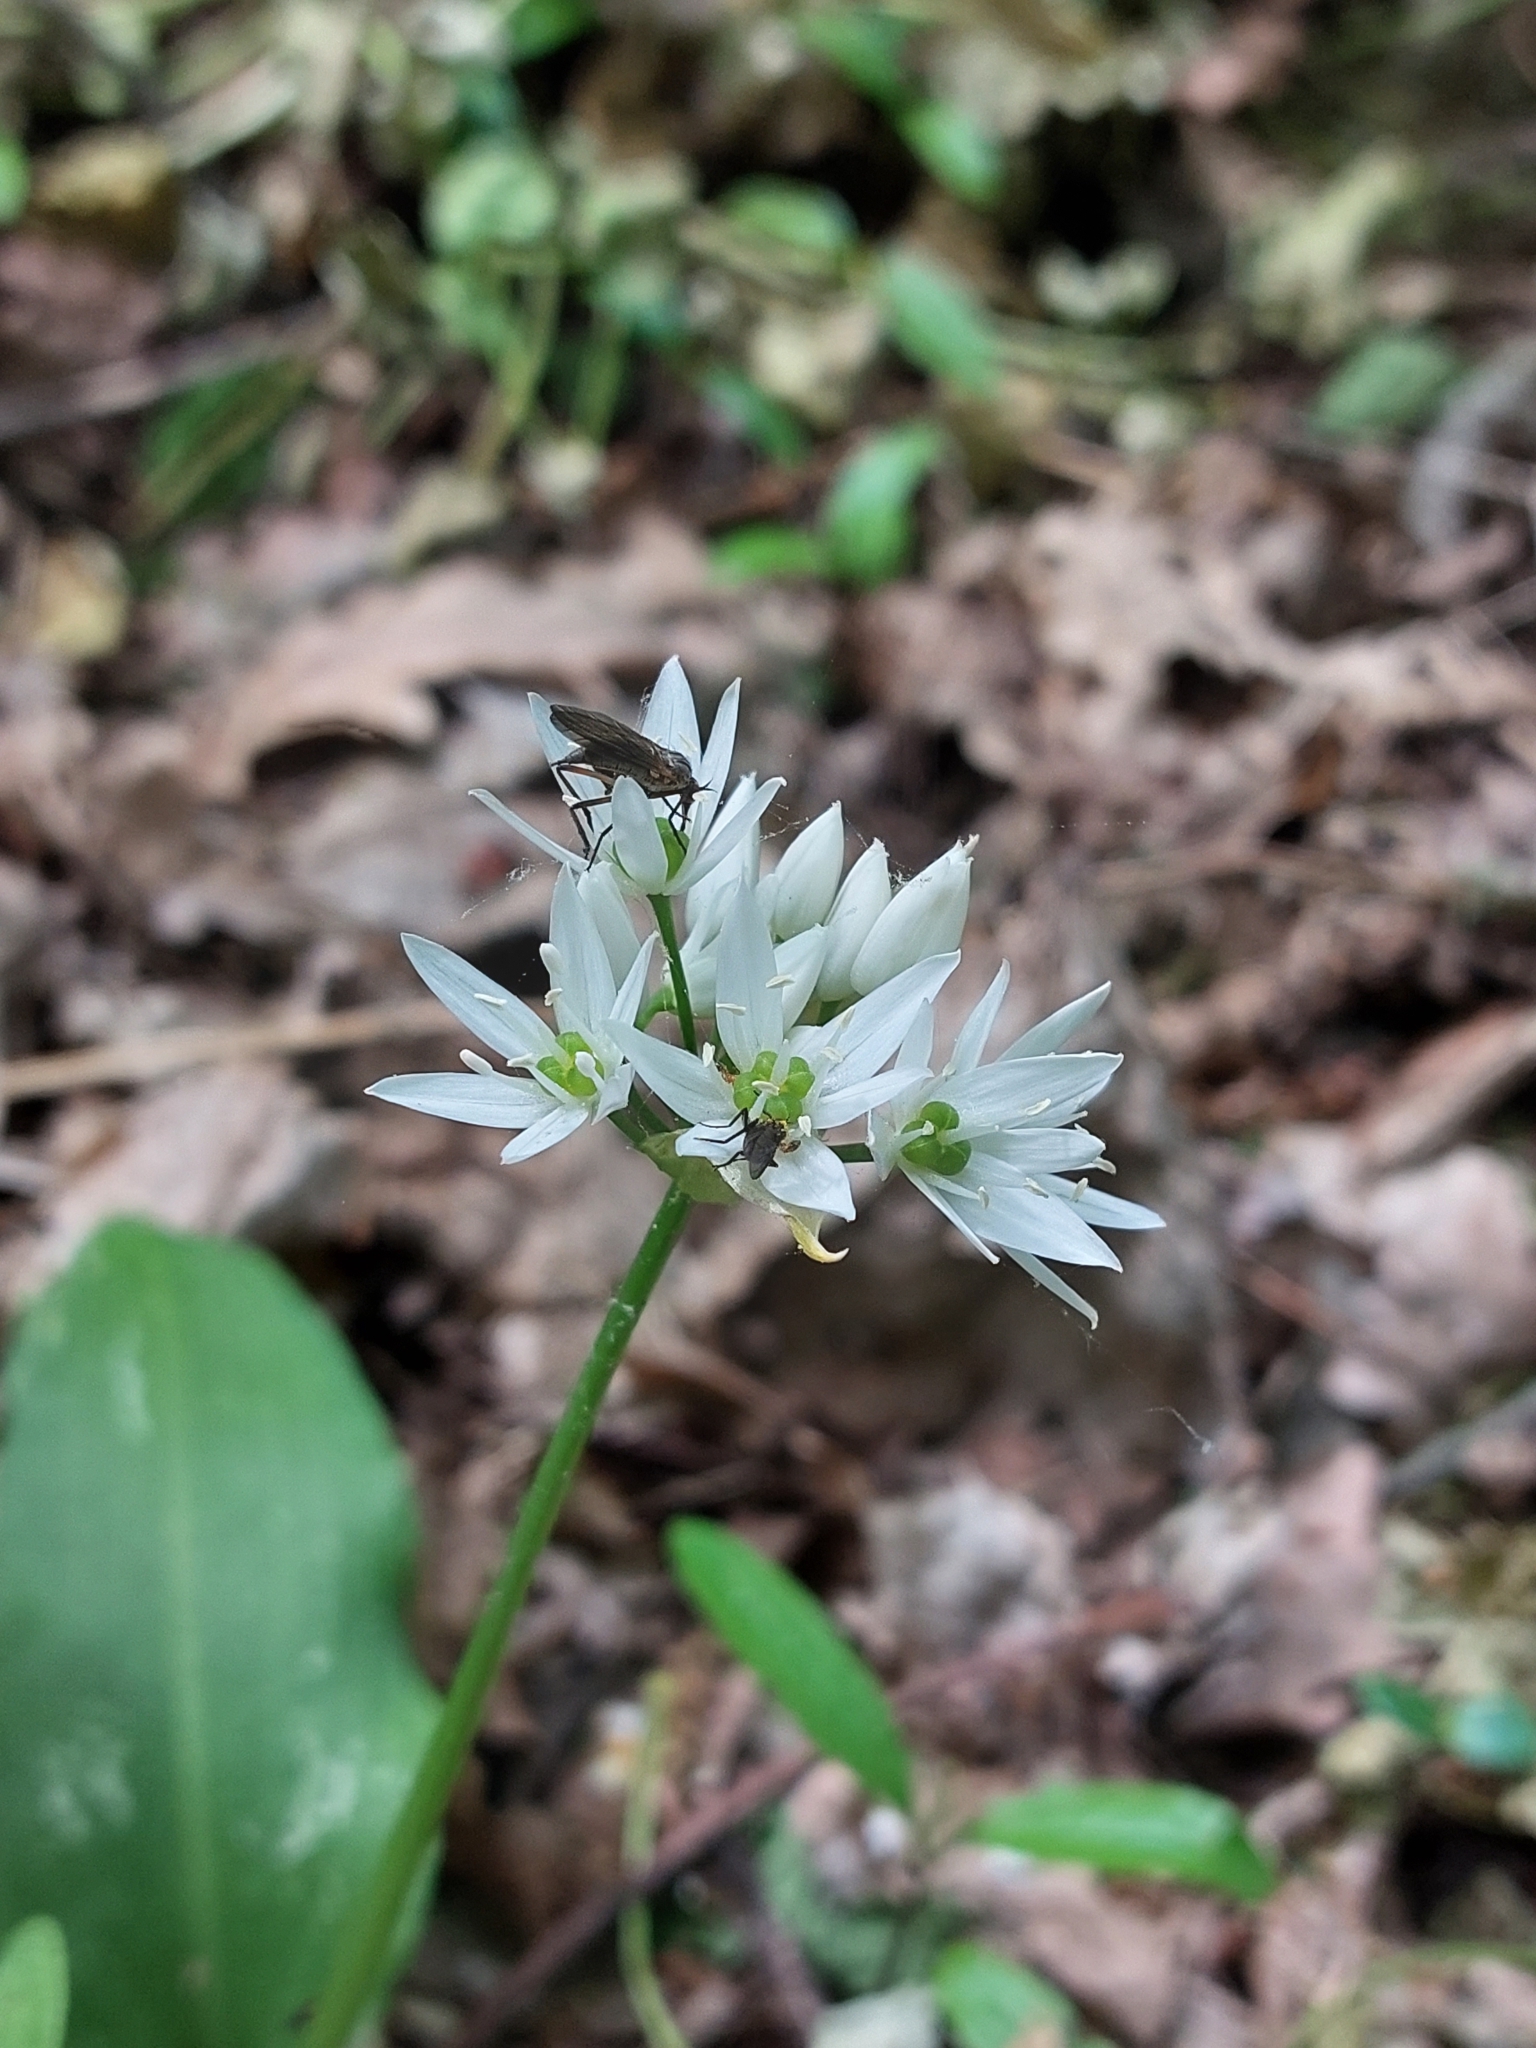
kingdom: Plantae
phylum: Tracheophyta
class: Liliopsida
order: Asparagales
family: Amaryllidaceae
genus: Allium
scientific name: Allium ursinum
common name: Ramsons
